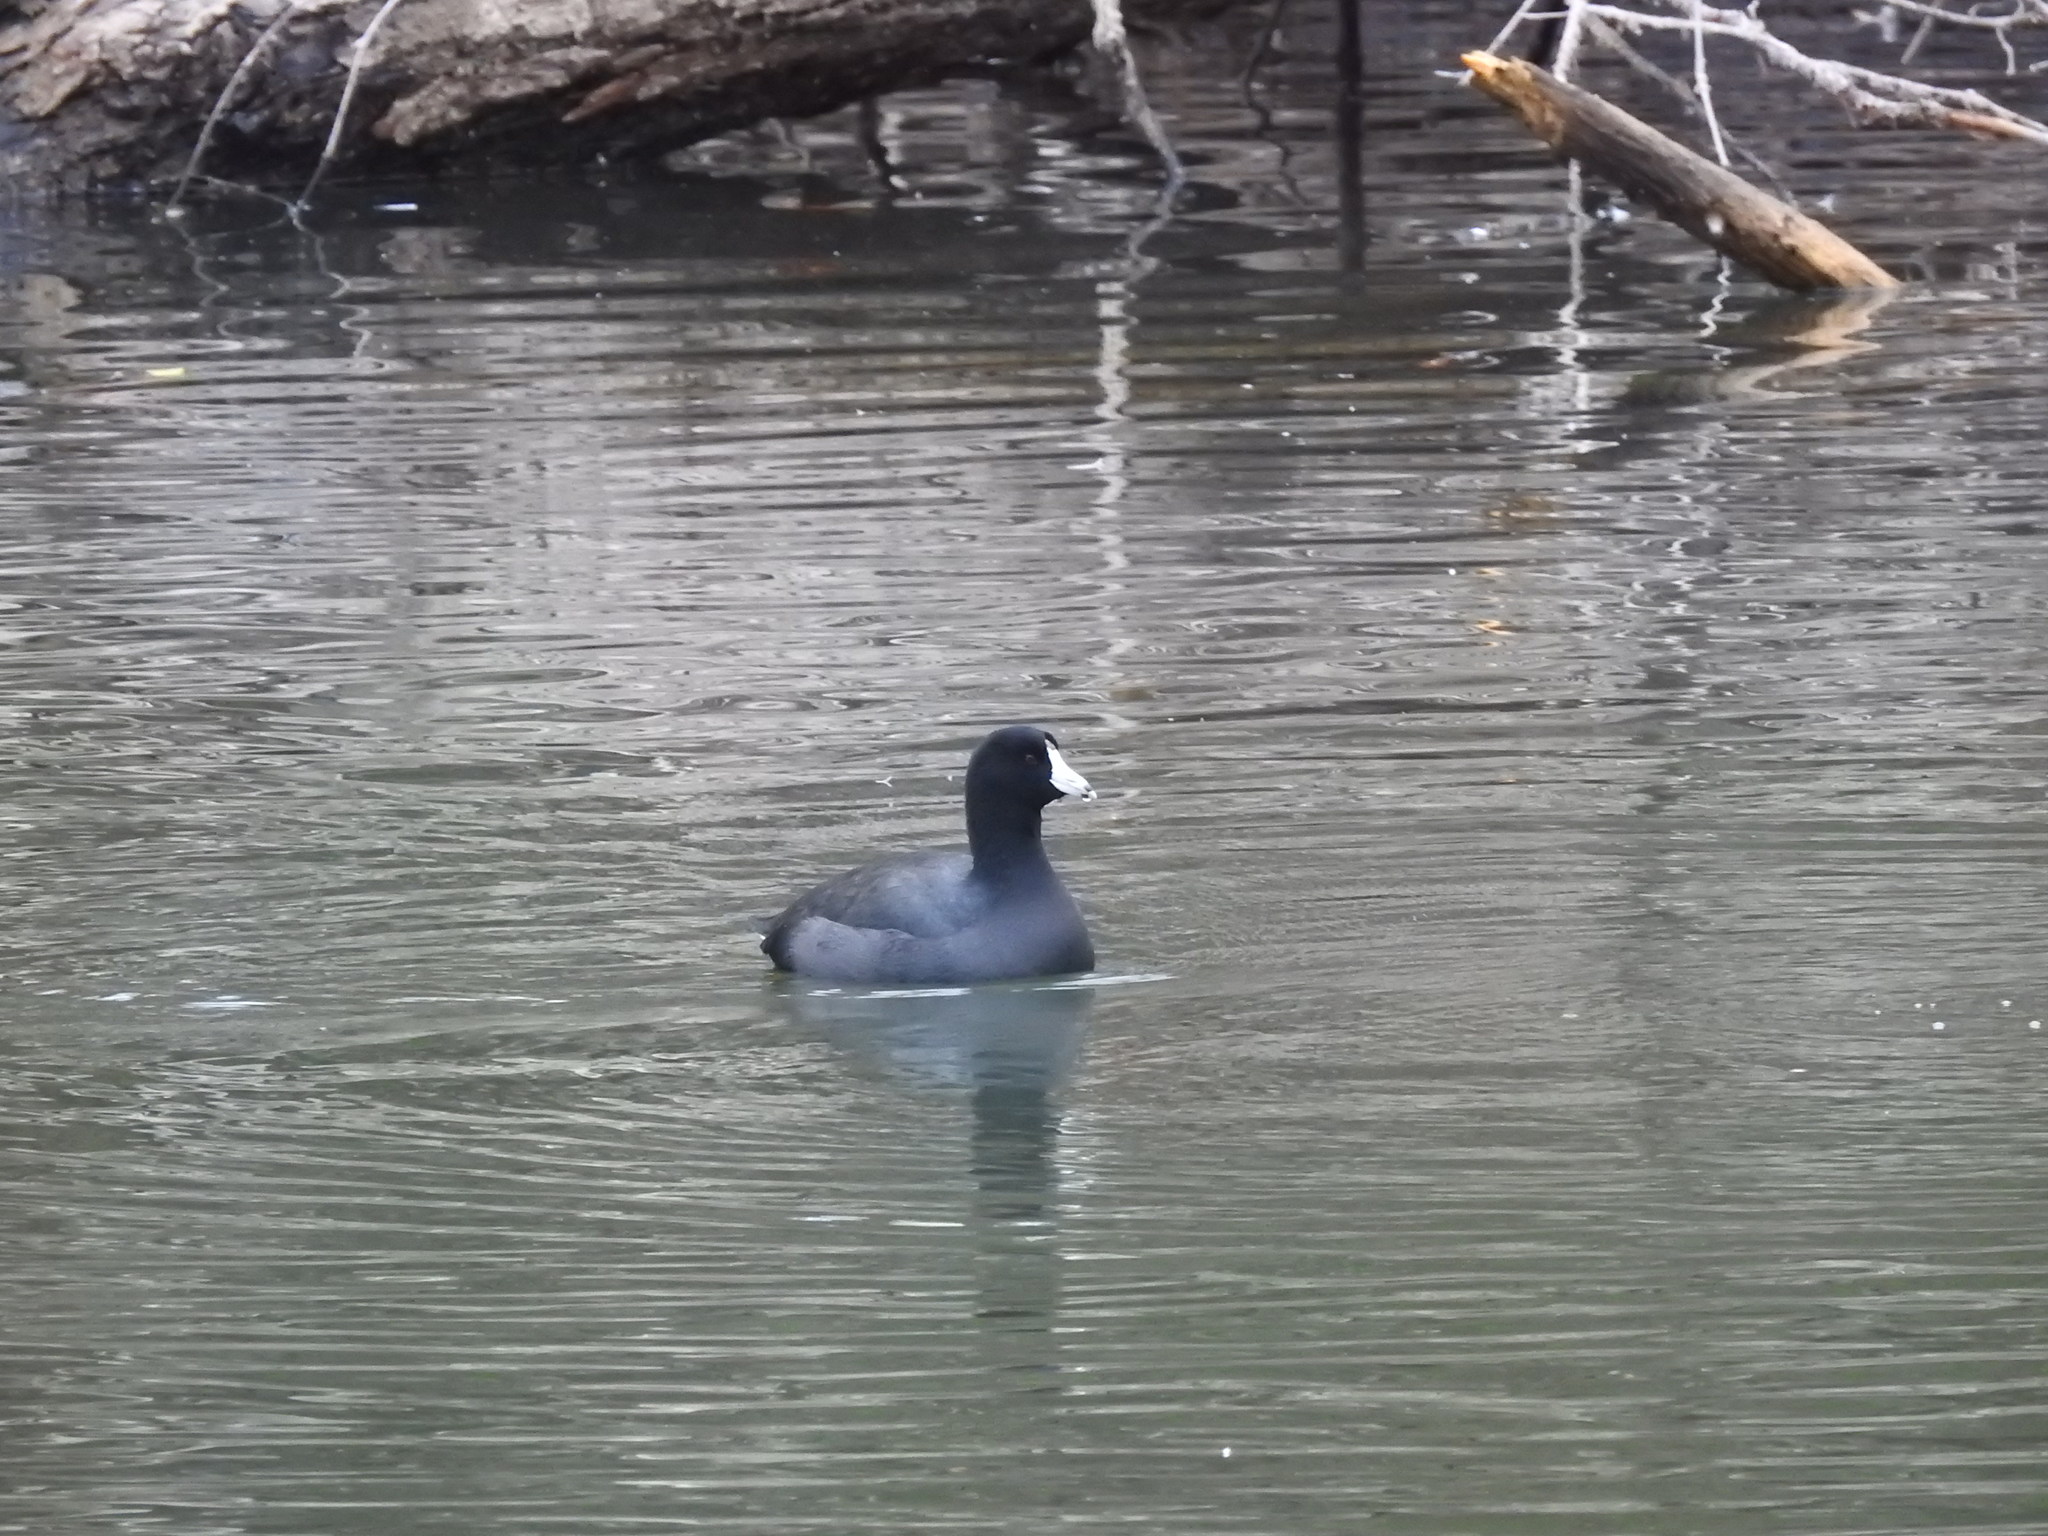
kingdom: Animalia
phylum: Chordata
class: Aves
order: Gruiformes
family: Rallidae
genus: Fulica
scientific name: Fulica americana
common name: American coot
